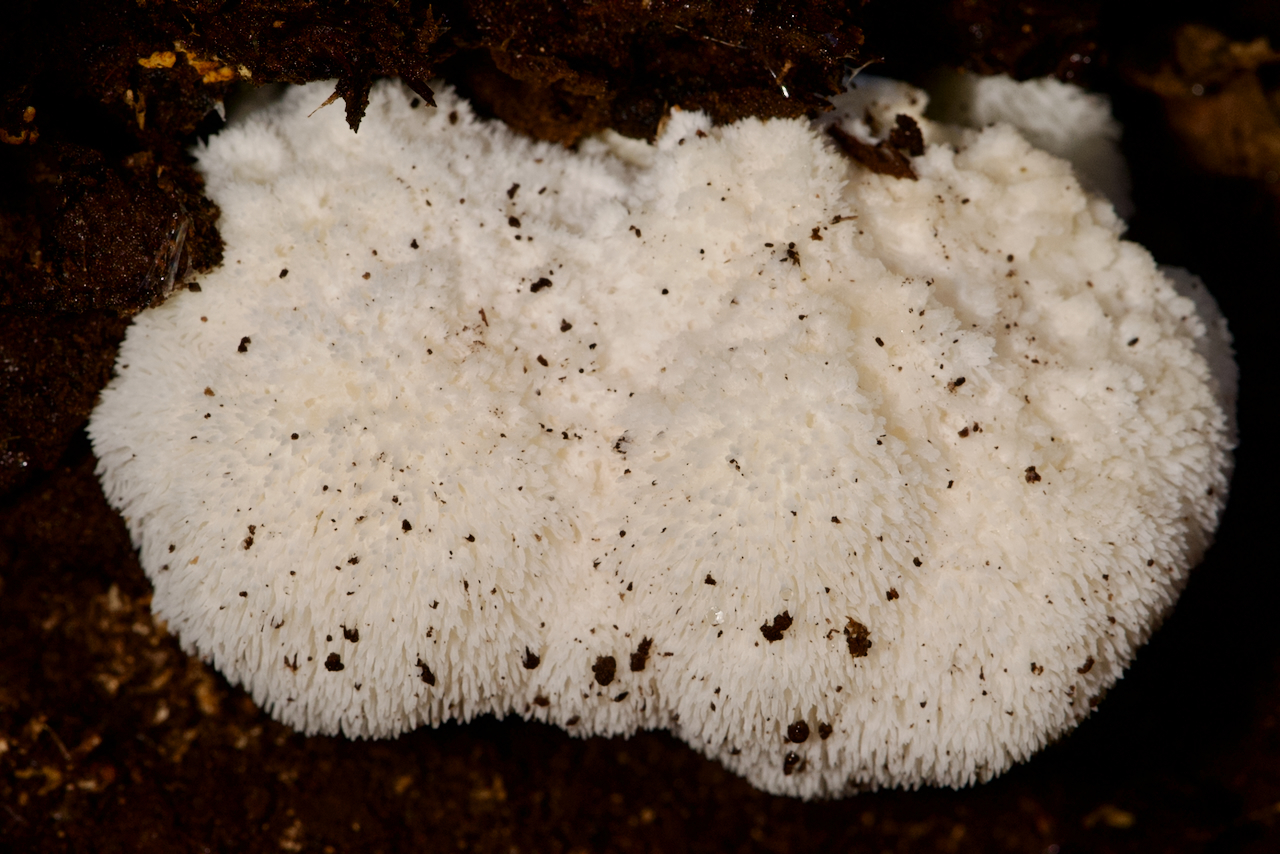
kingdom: Fungi
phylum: Basidiomycota
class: Agaricomycetes
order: Russulales
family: Hericiaceae
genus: Hericium
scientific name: Hericium erinaceus
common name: Bearded tooth
